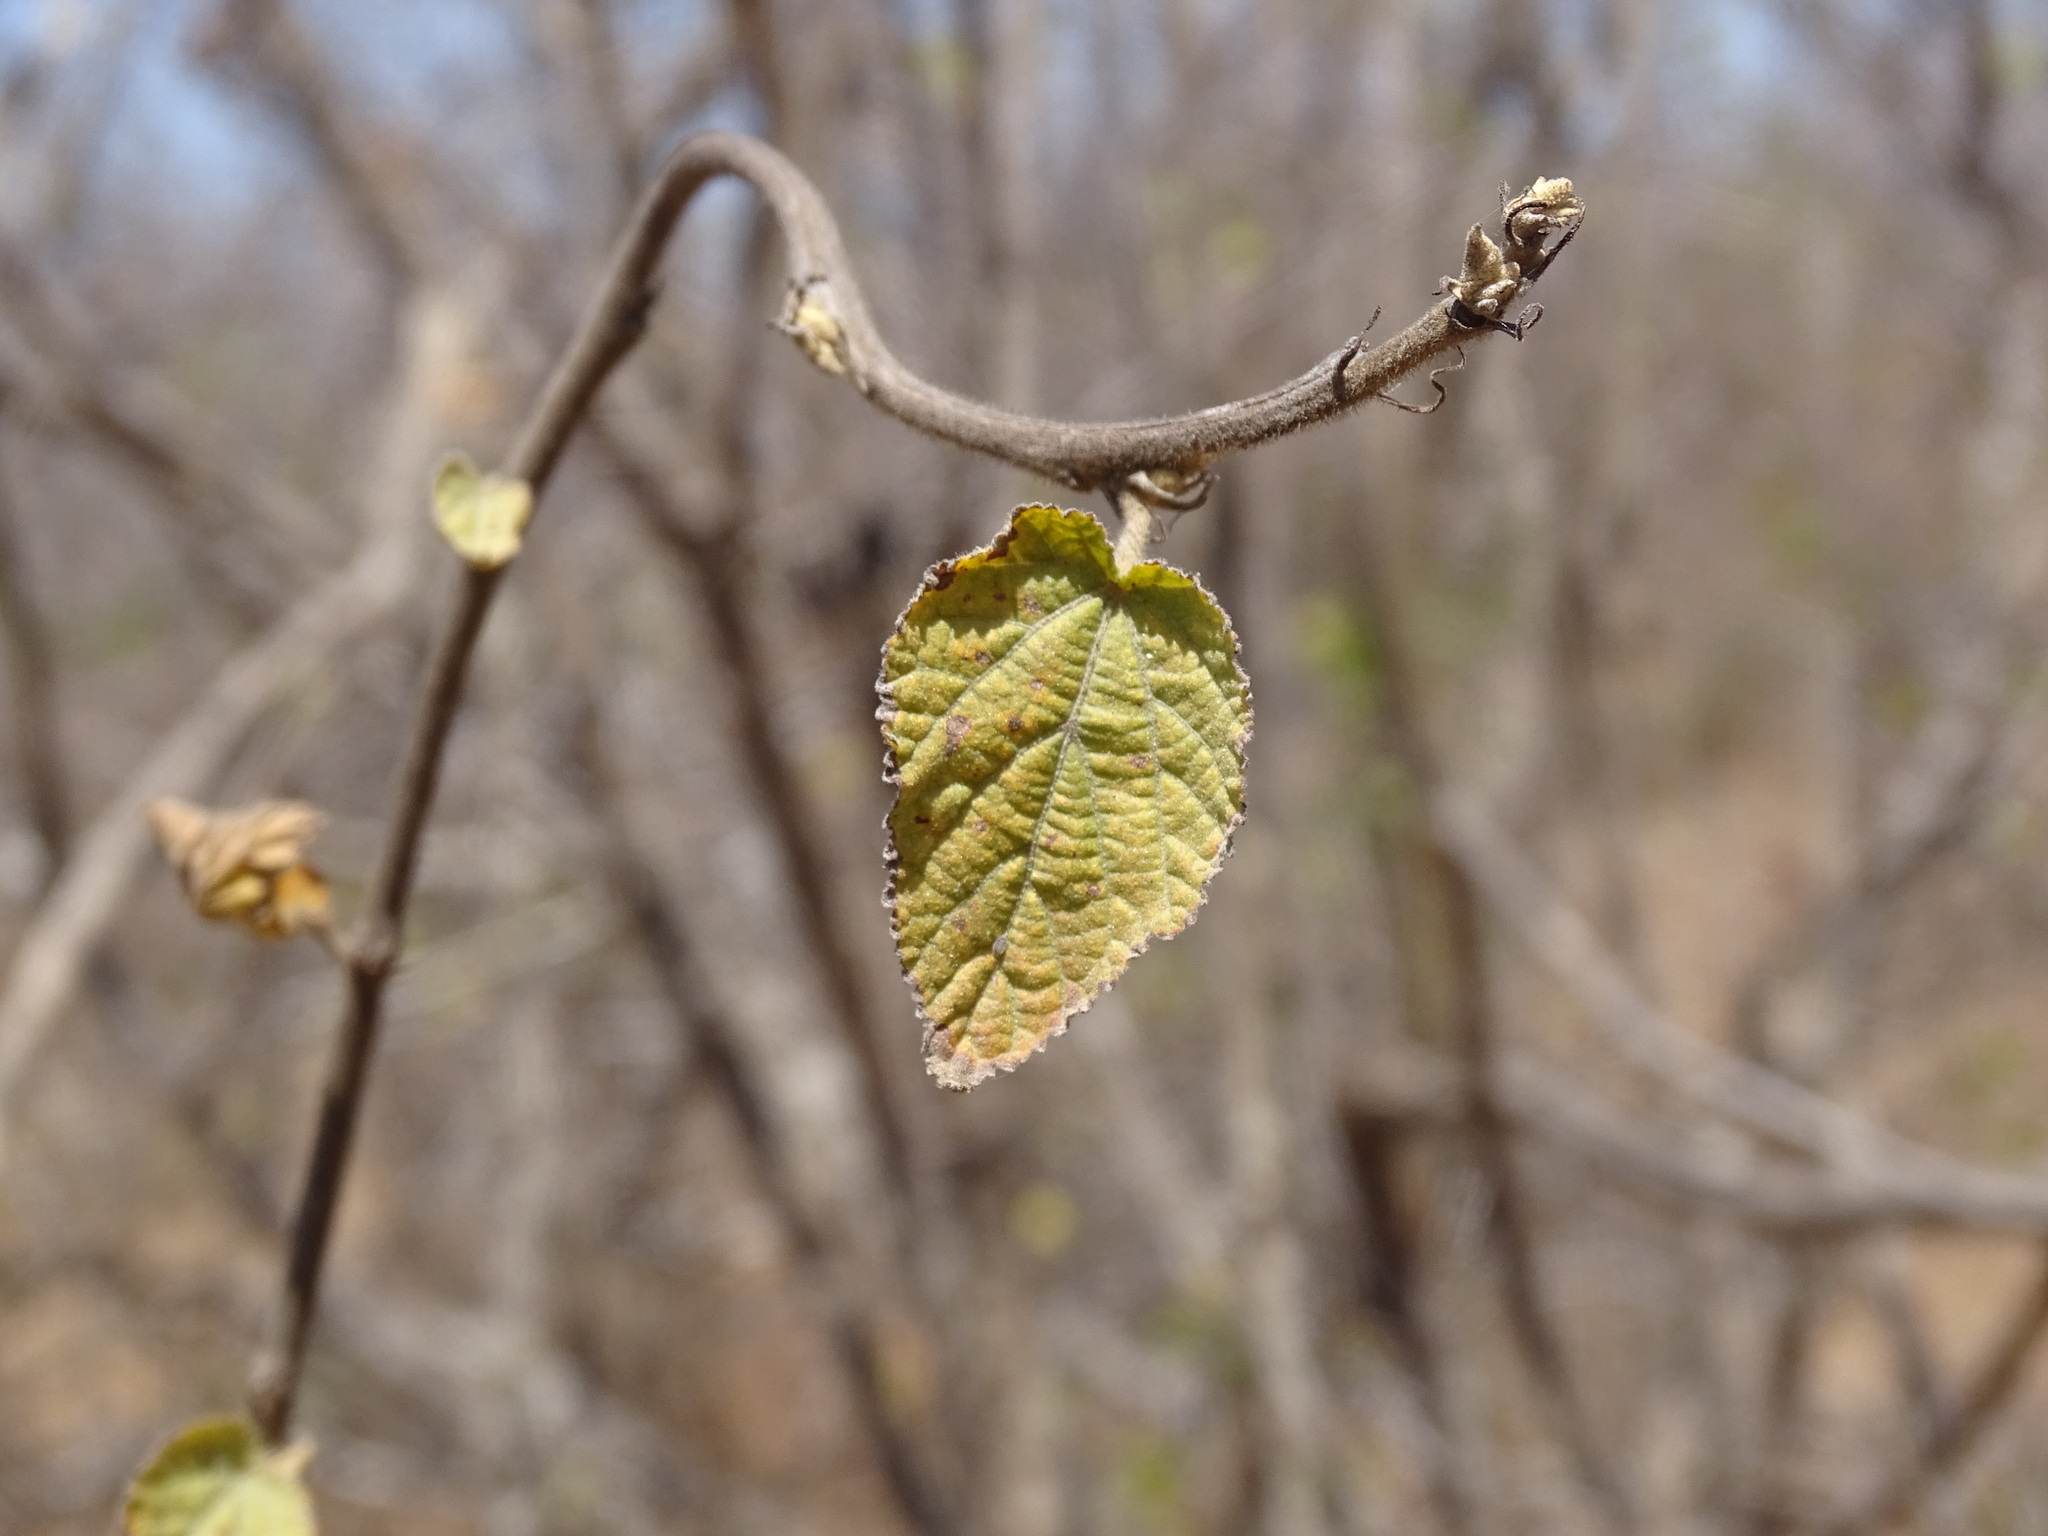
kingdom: Plantae
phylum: Tracheophyta
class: Magnoliopsida
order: Malvales
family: Malvaceae
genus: Helicteres
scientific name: Helicteres vegae
